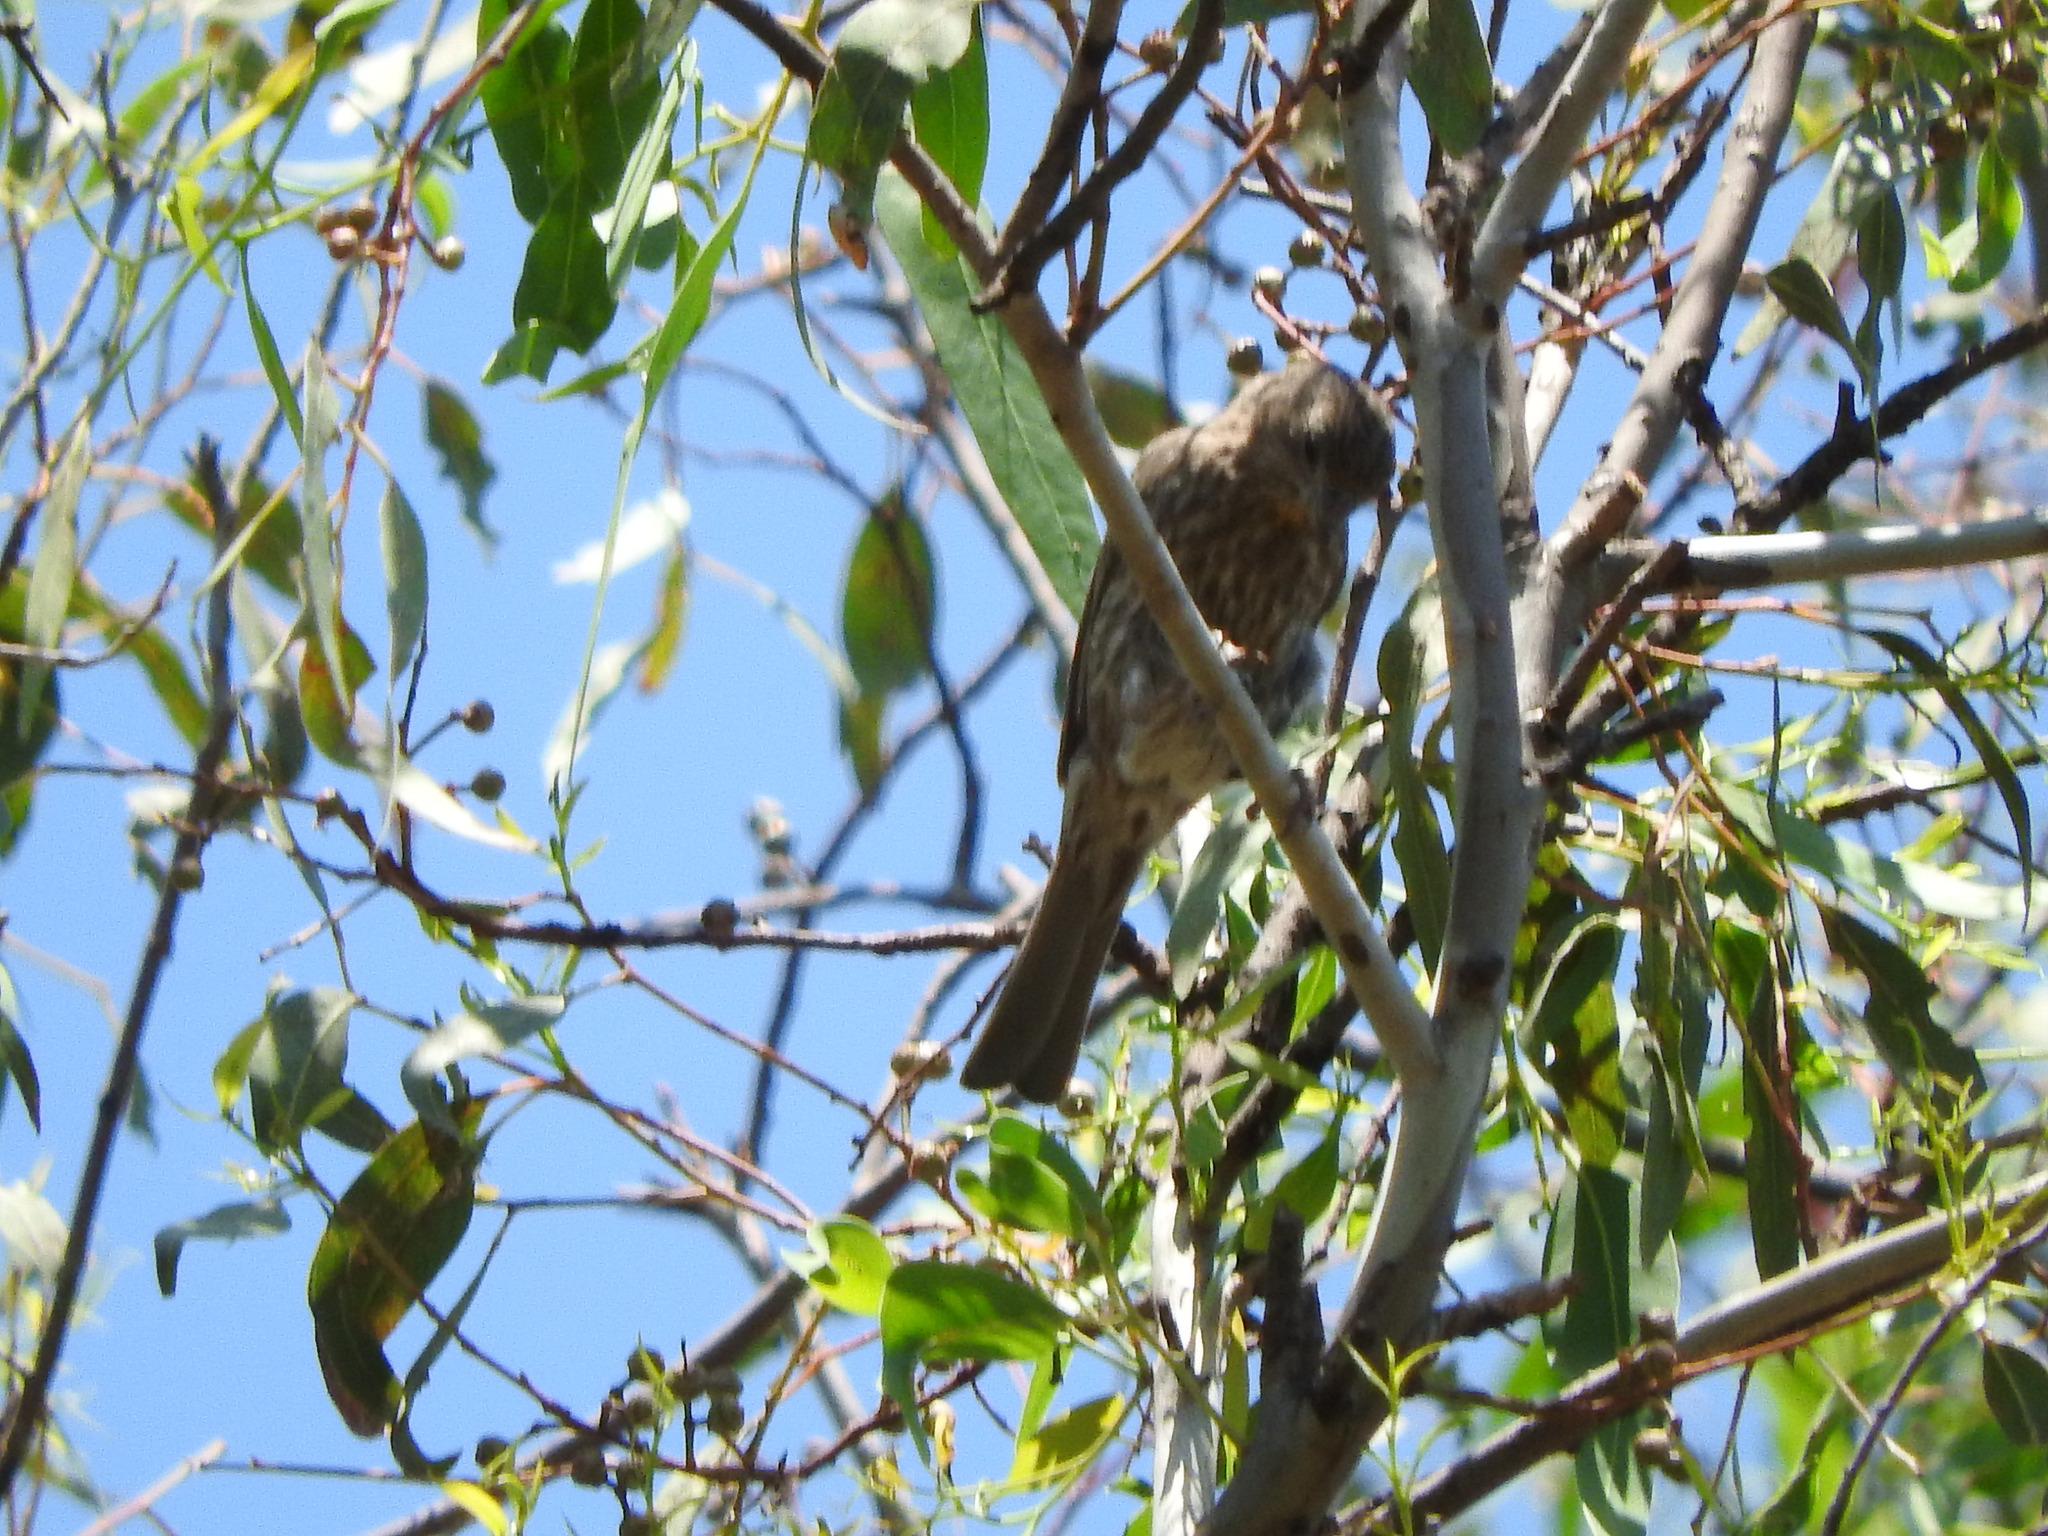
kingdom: Animalia
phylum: Chordata
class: Aves
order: Passeriformes
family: Fringillidae
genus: Haemorhous
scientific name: Haemorhous mexicanus
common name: House finch
